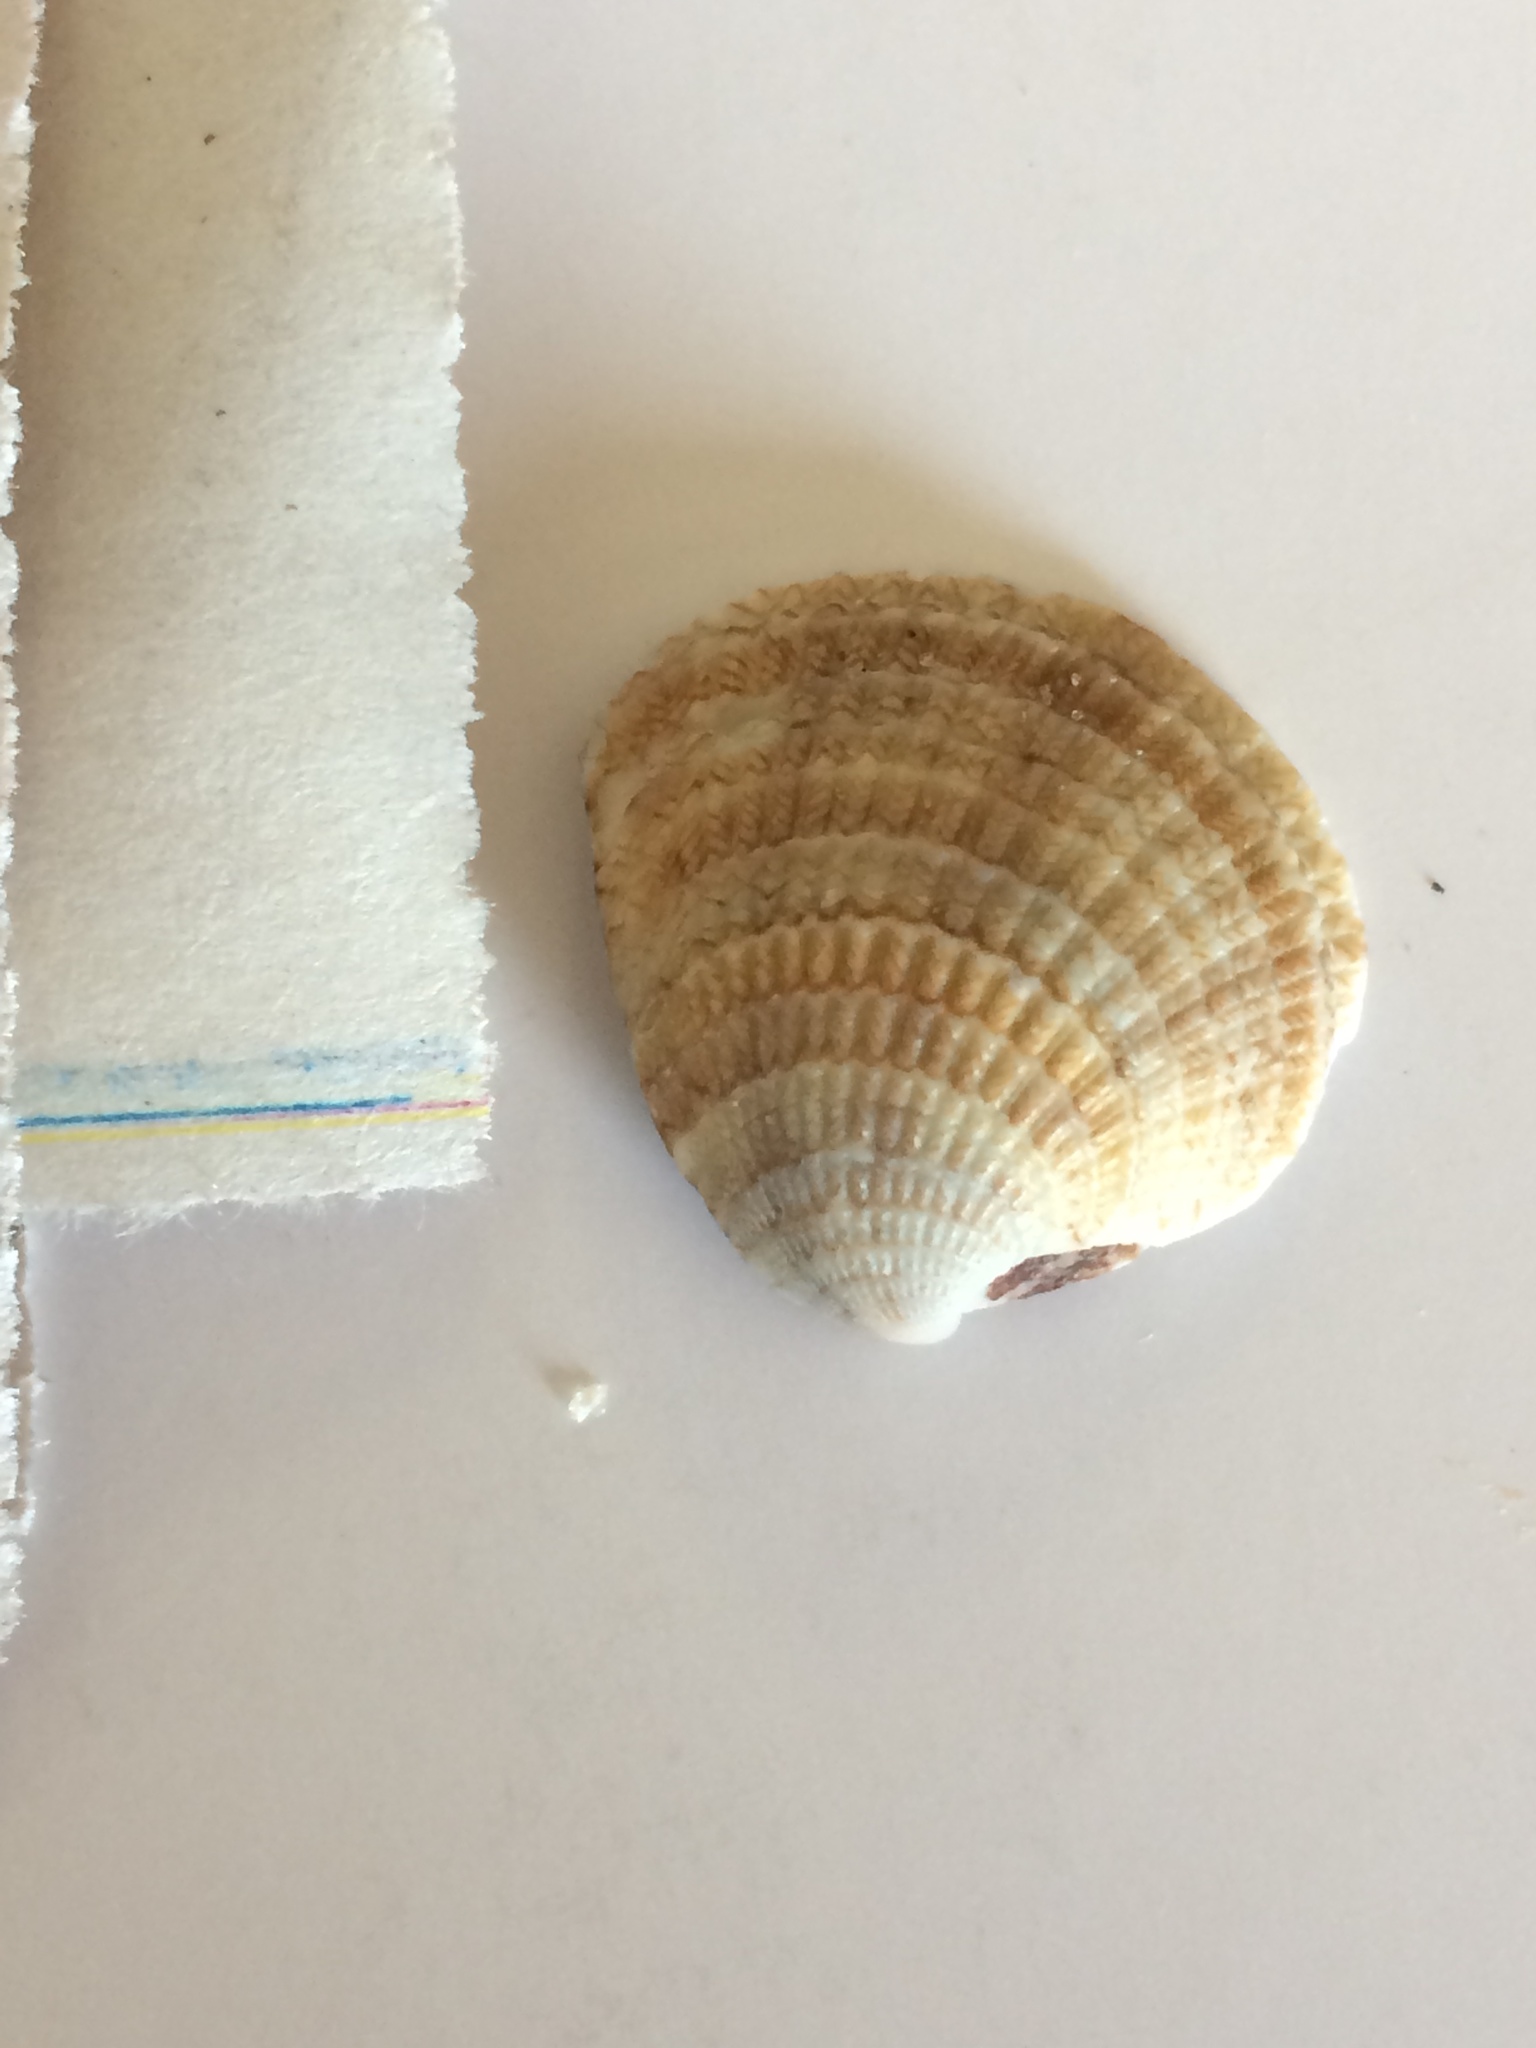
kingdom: Animalia
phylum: Mollusca
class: Bivalvia
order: Venerida
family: Veneridae
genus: Chione
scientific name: Chione elevata
